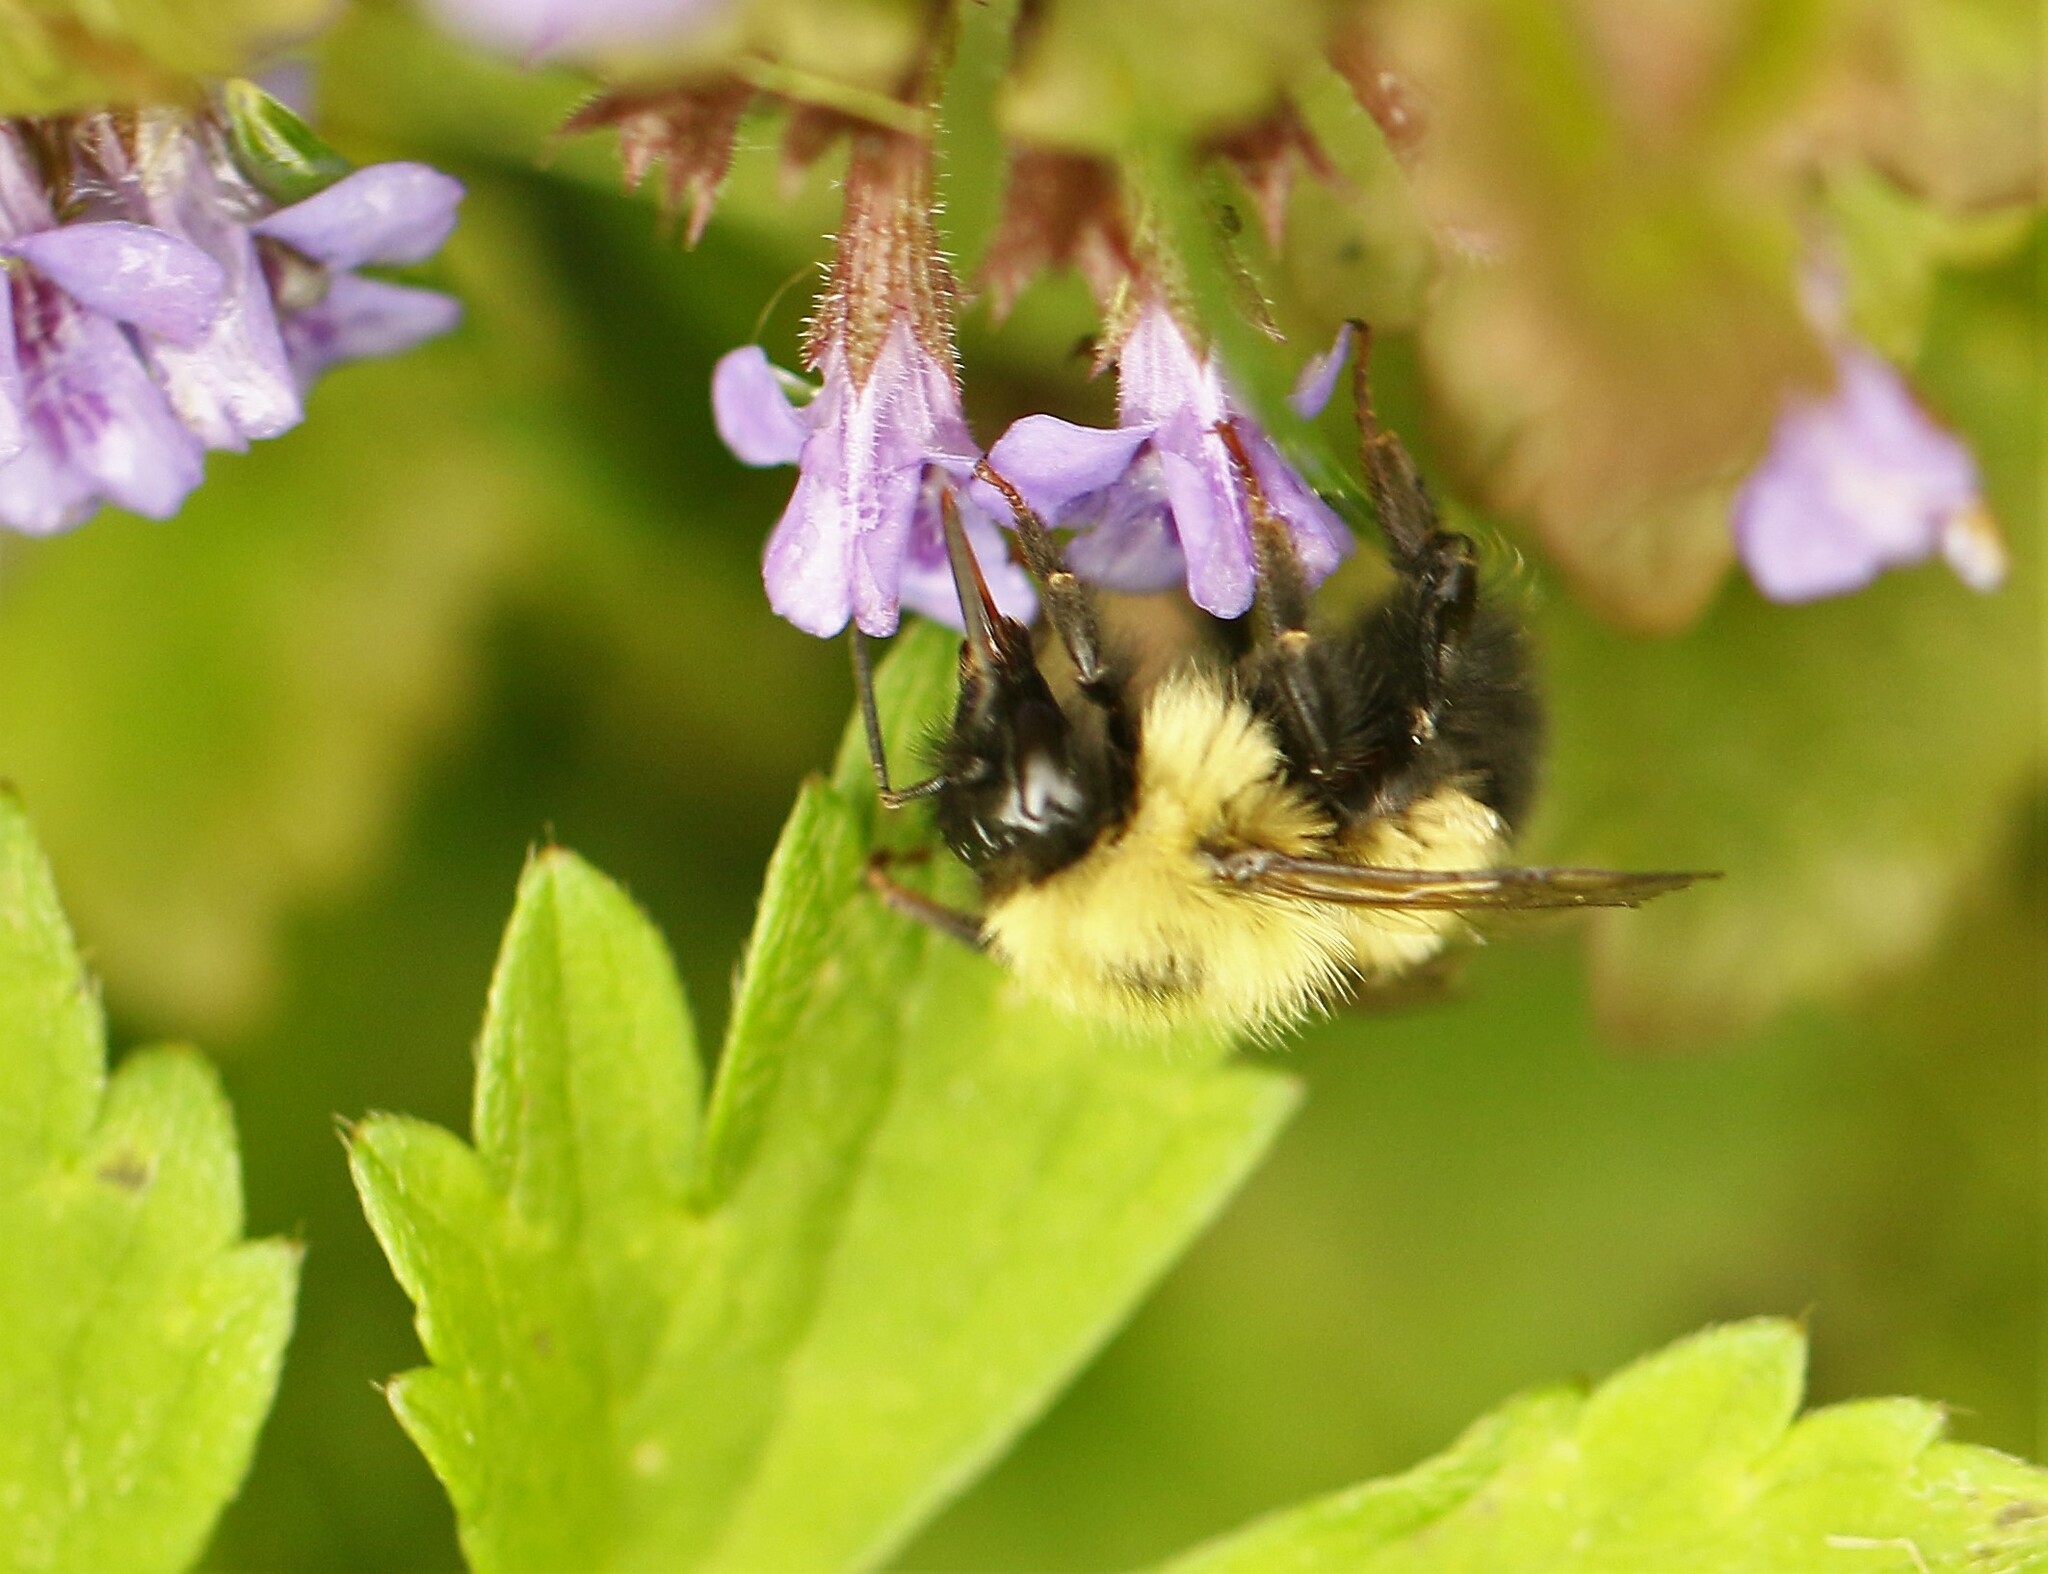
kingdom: Animalia
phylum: Arthropoda
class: Insecta
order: Hymenoptera
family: Apidae
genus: Pyrobombus
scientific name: Pyrobombus
